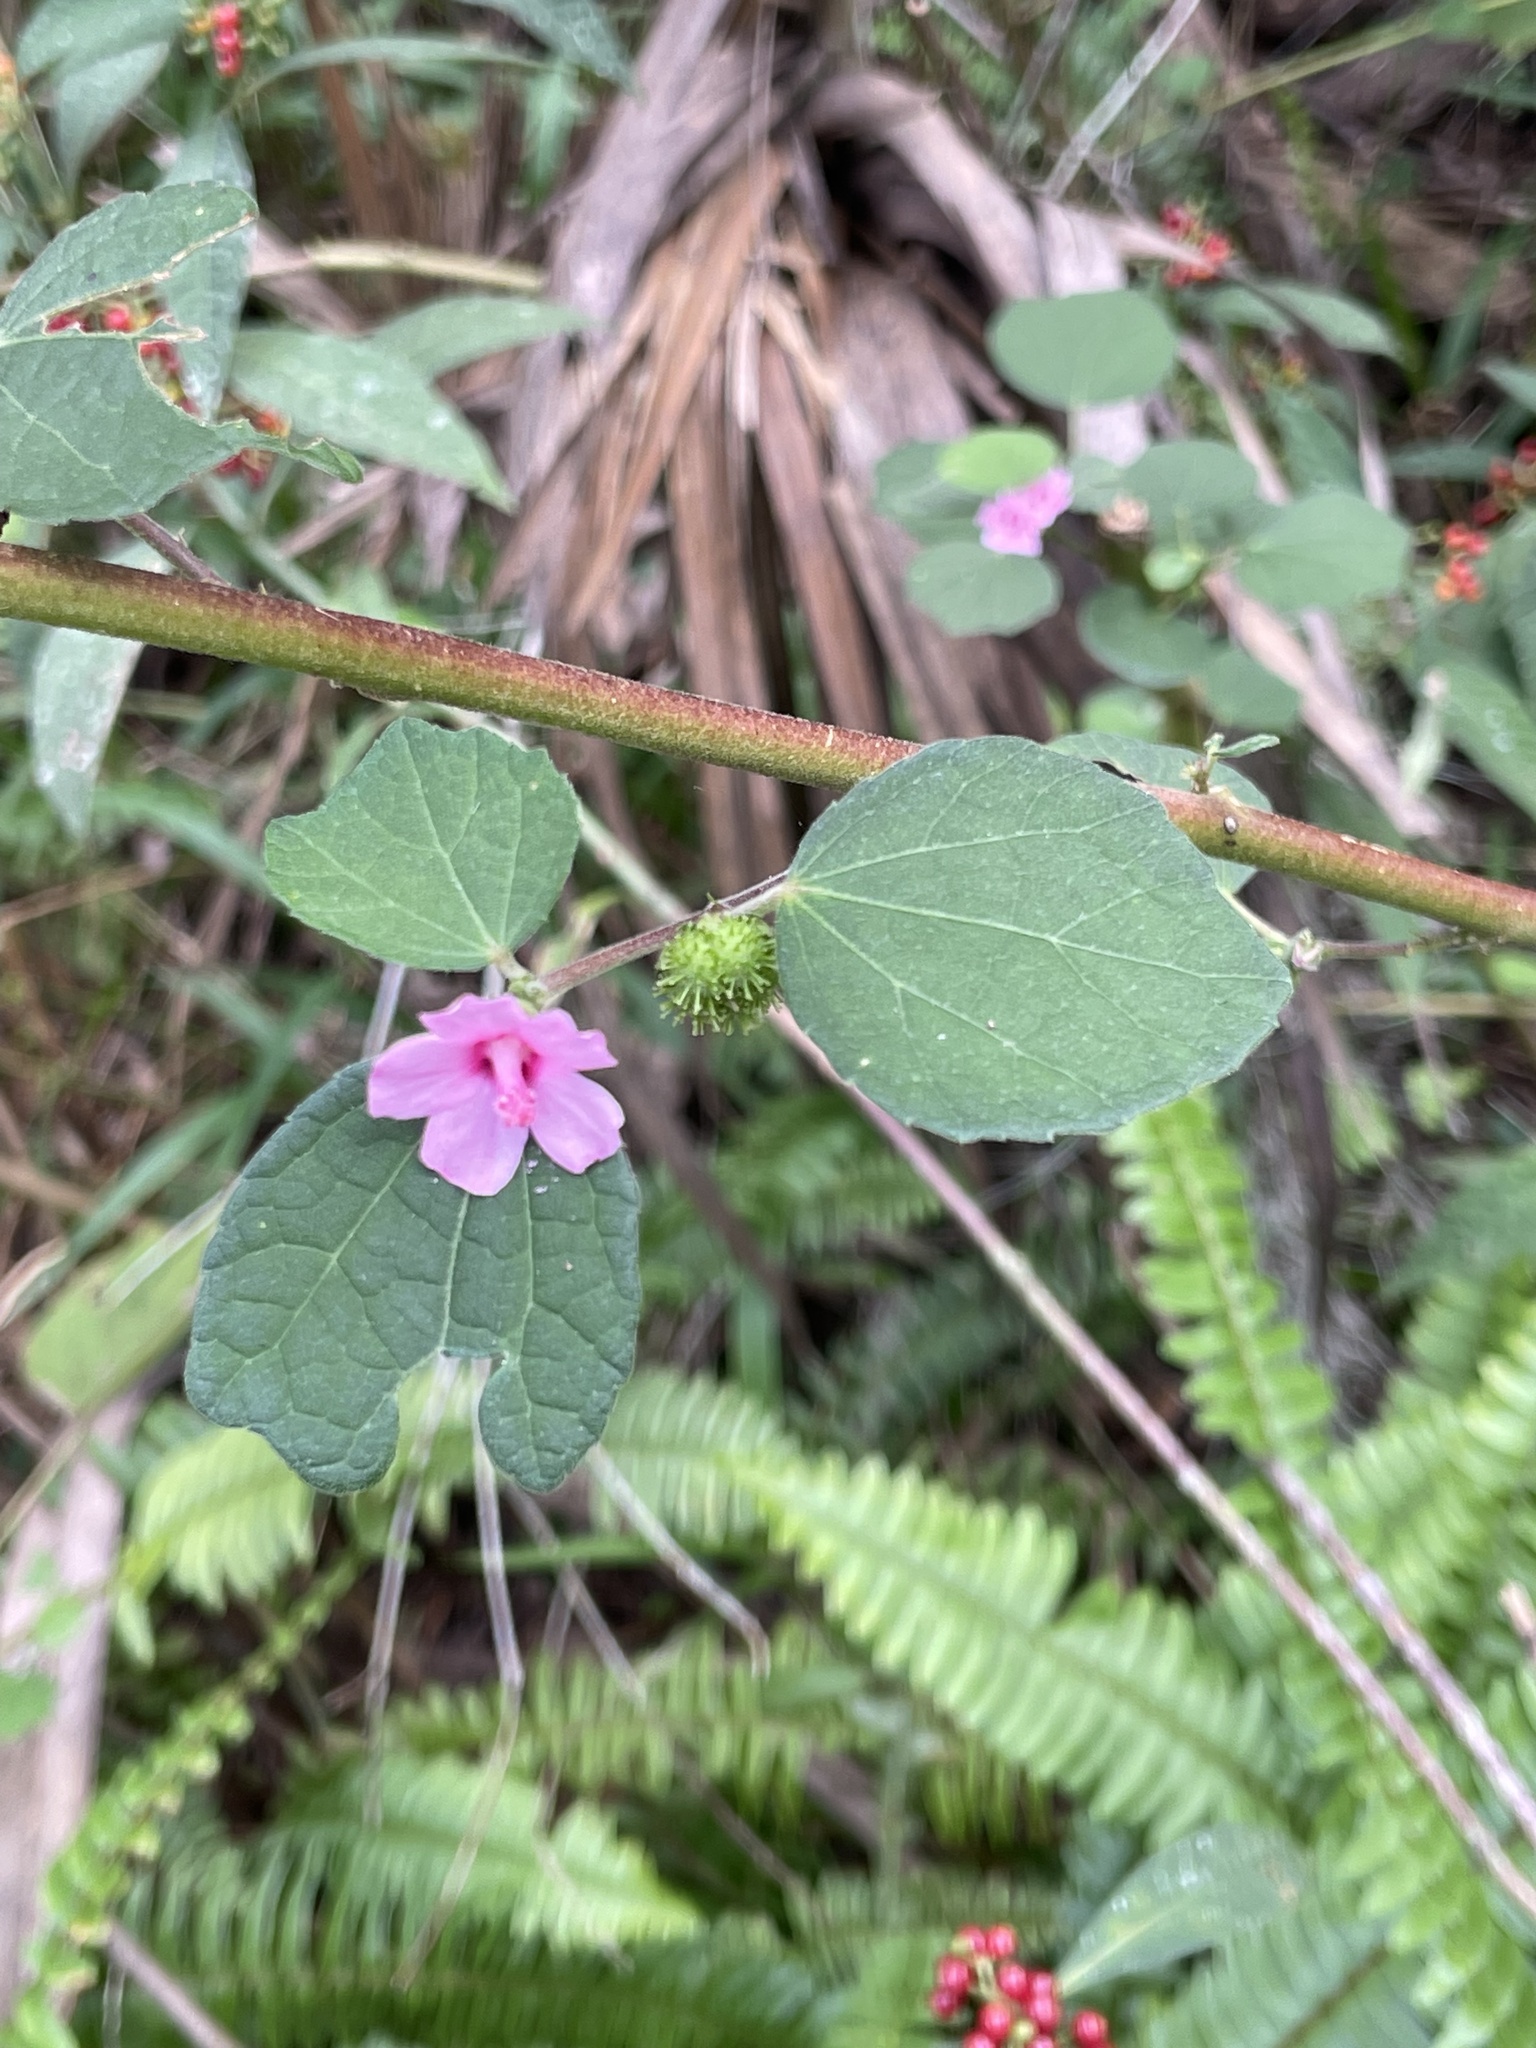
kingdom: Plantae
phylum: Tracheophyta
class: Magnoliopsida
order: Malvales
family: Malvaceae
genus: Urena
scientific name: Urena lobata
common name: Caesarweed
